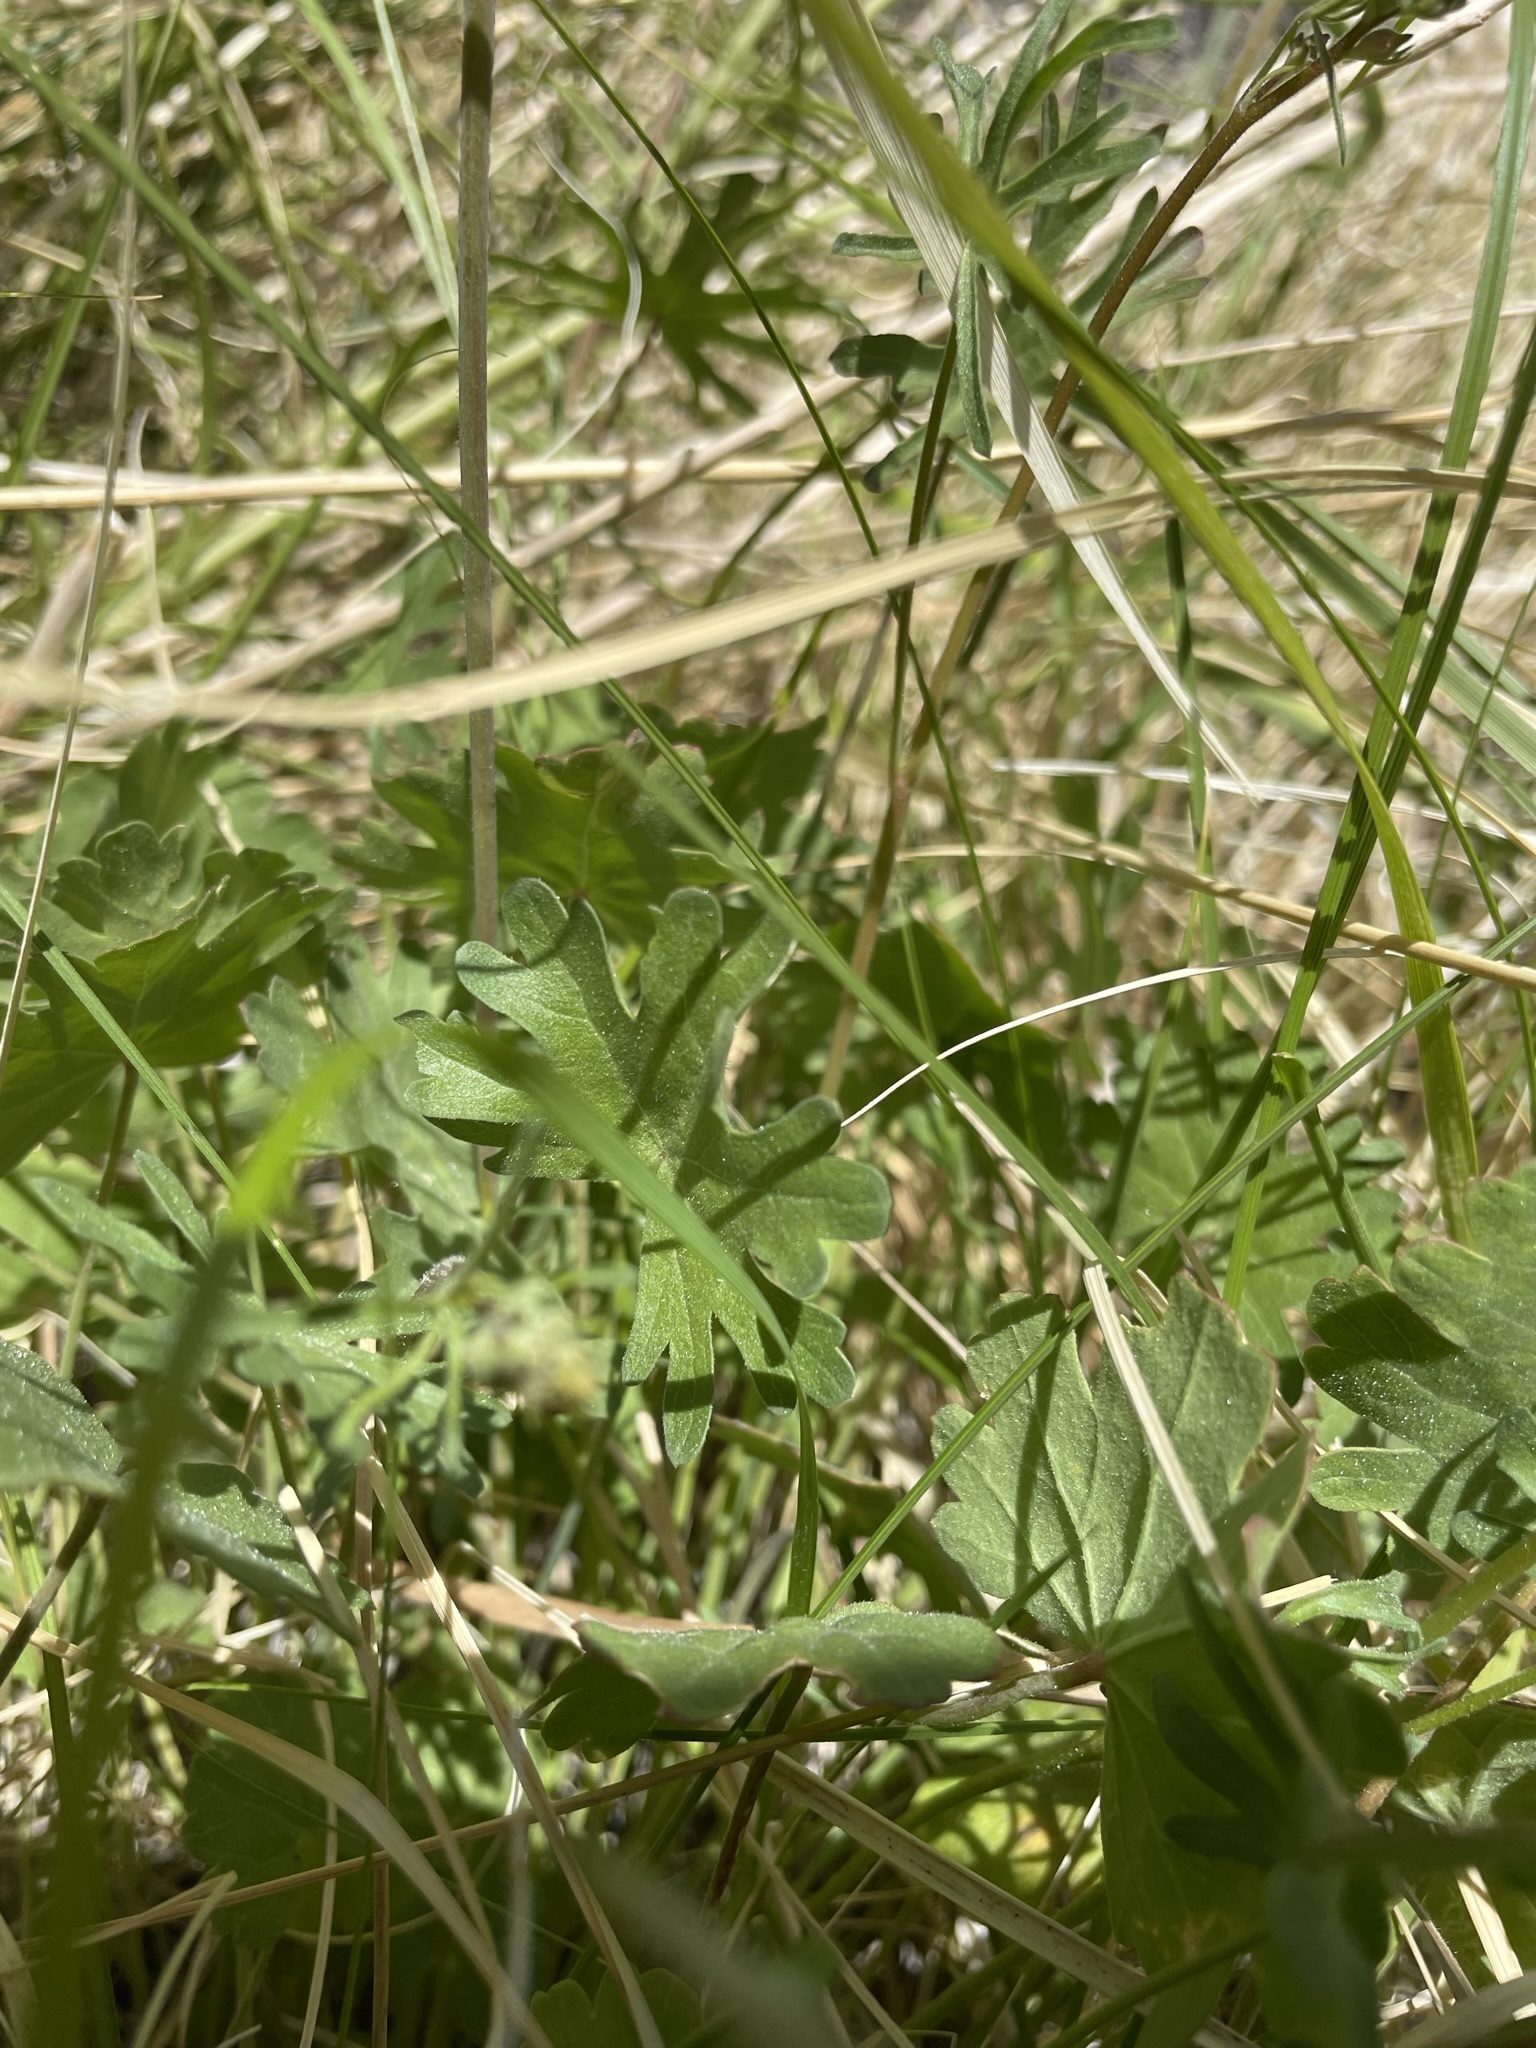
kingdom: Plantae
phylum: Tracheophyta
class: Magnoliopsida
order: Malvales
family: Malvaceae
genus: Sidalcea
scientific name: Sidalcea covillei
